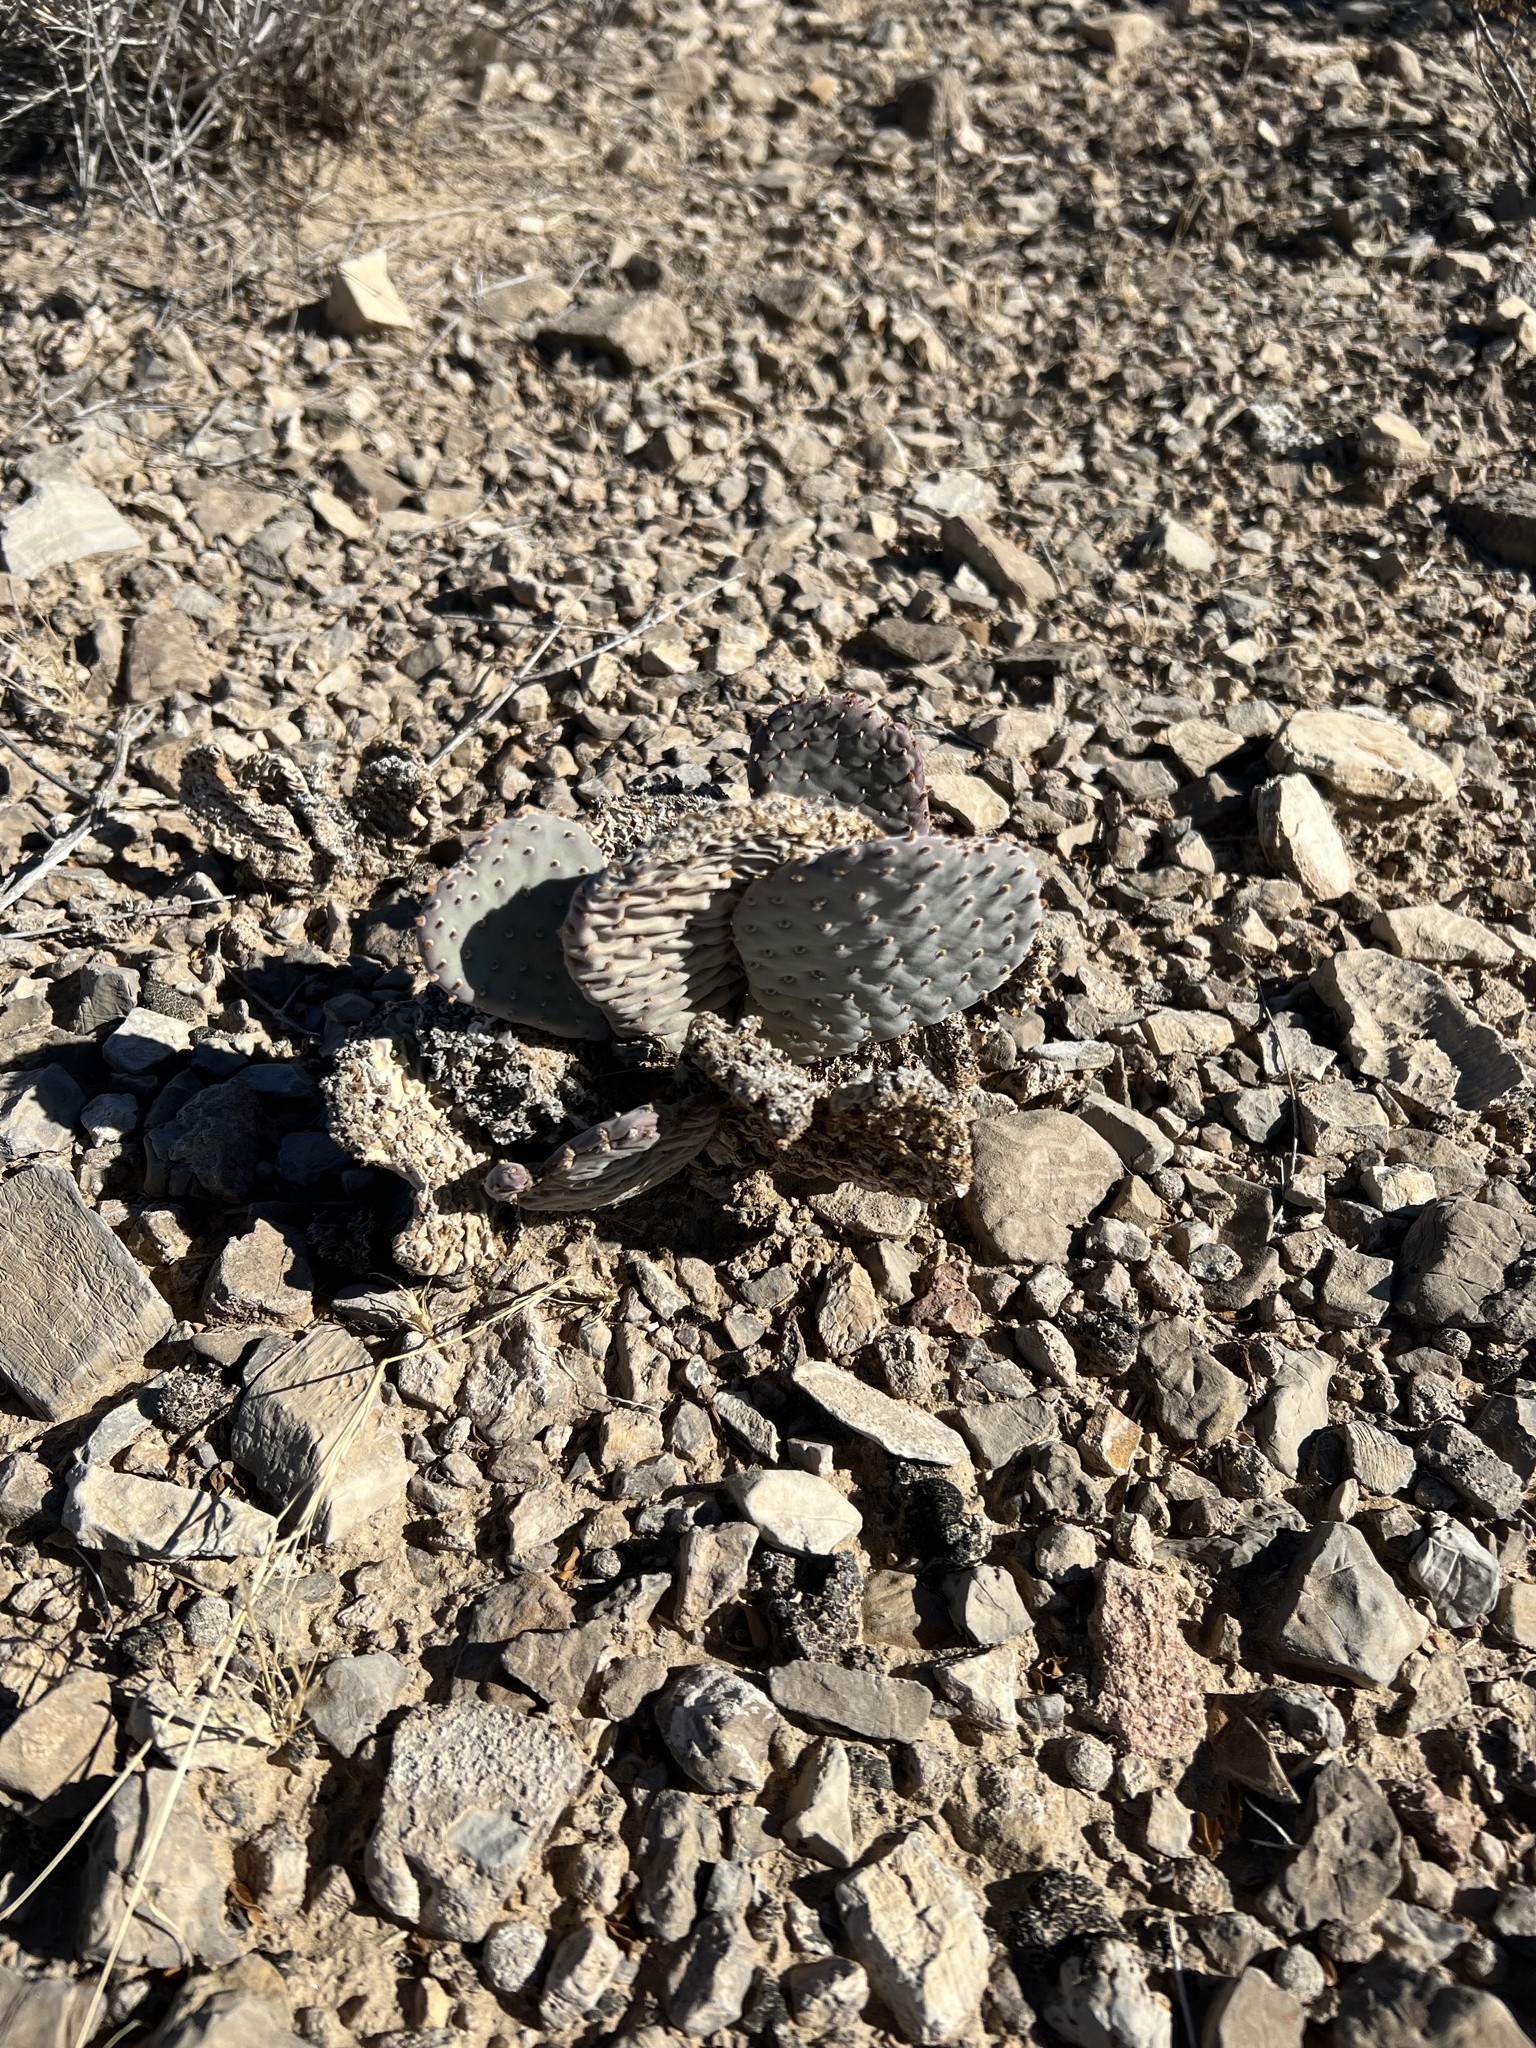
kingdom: Plantae
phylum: Tracheophyta
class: Magnoliopsida
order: Caryophyllales
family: Cactaceae
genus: Opuntia
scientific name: Opuntia basilaris
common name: Beavertail prickly-pear
